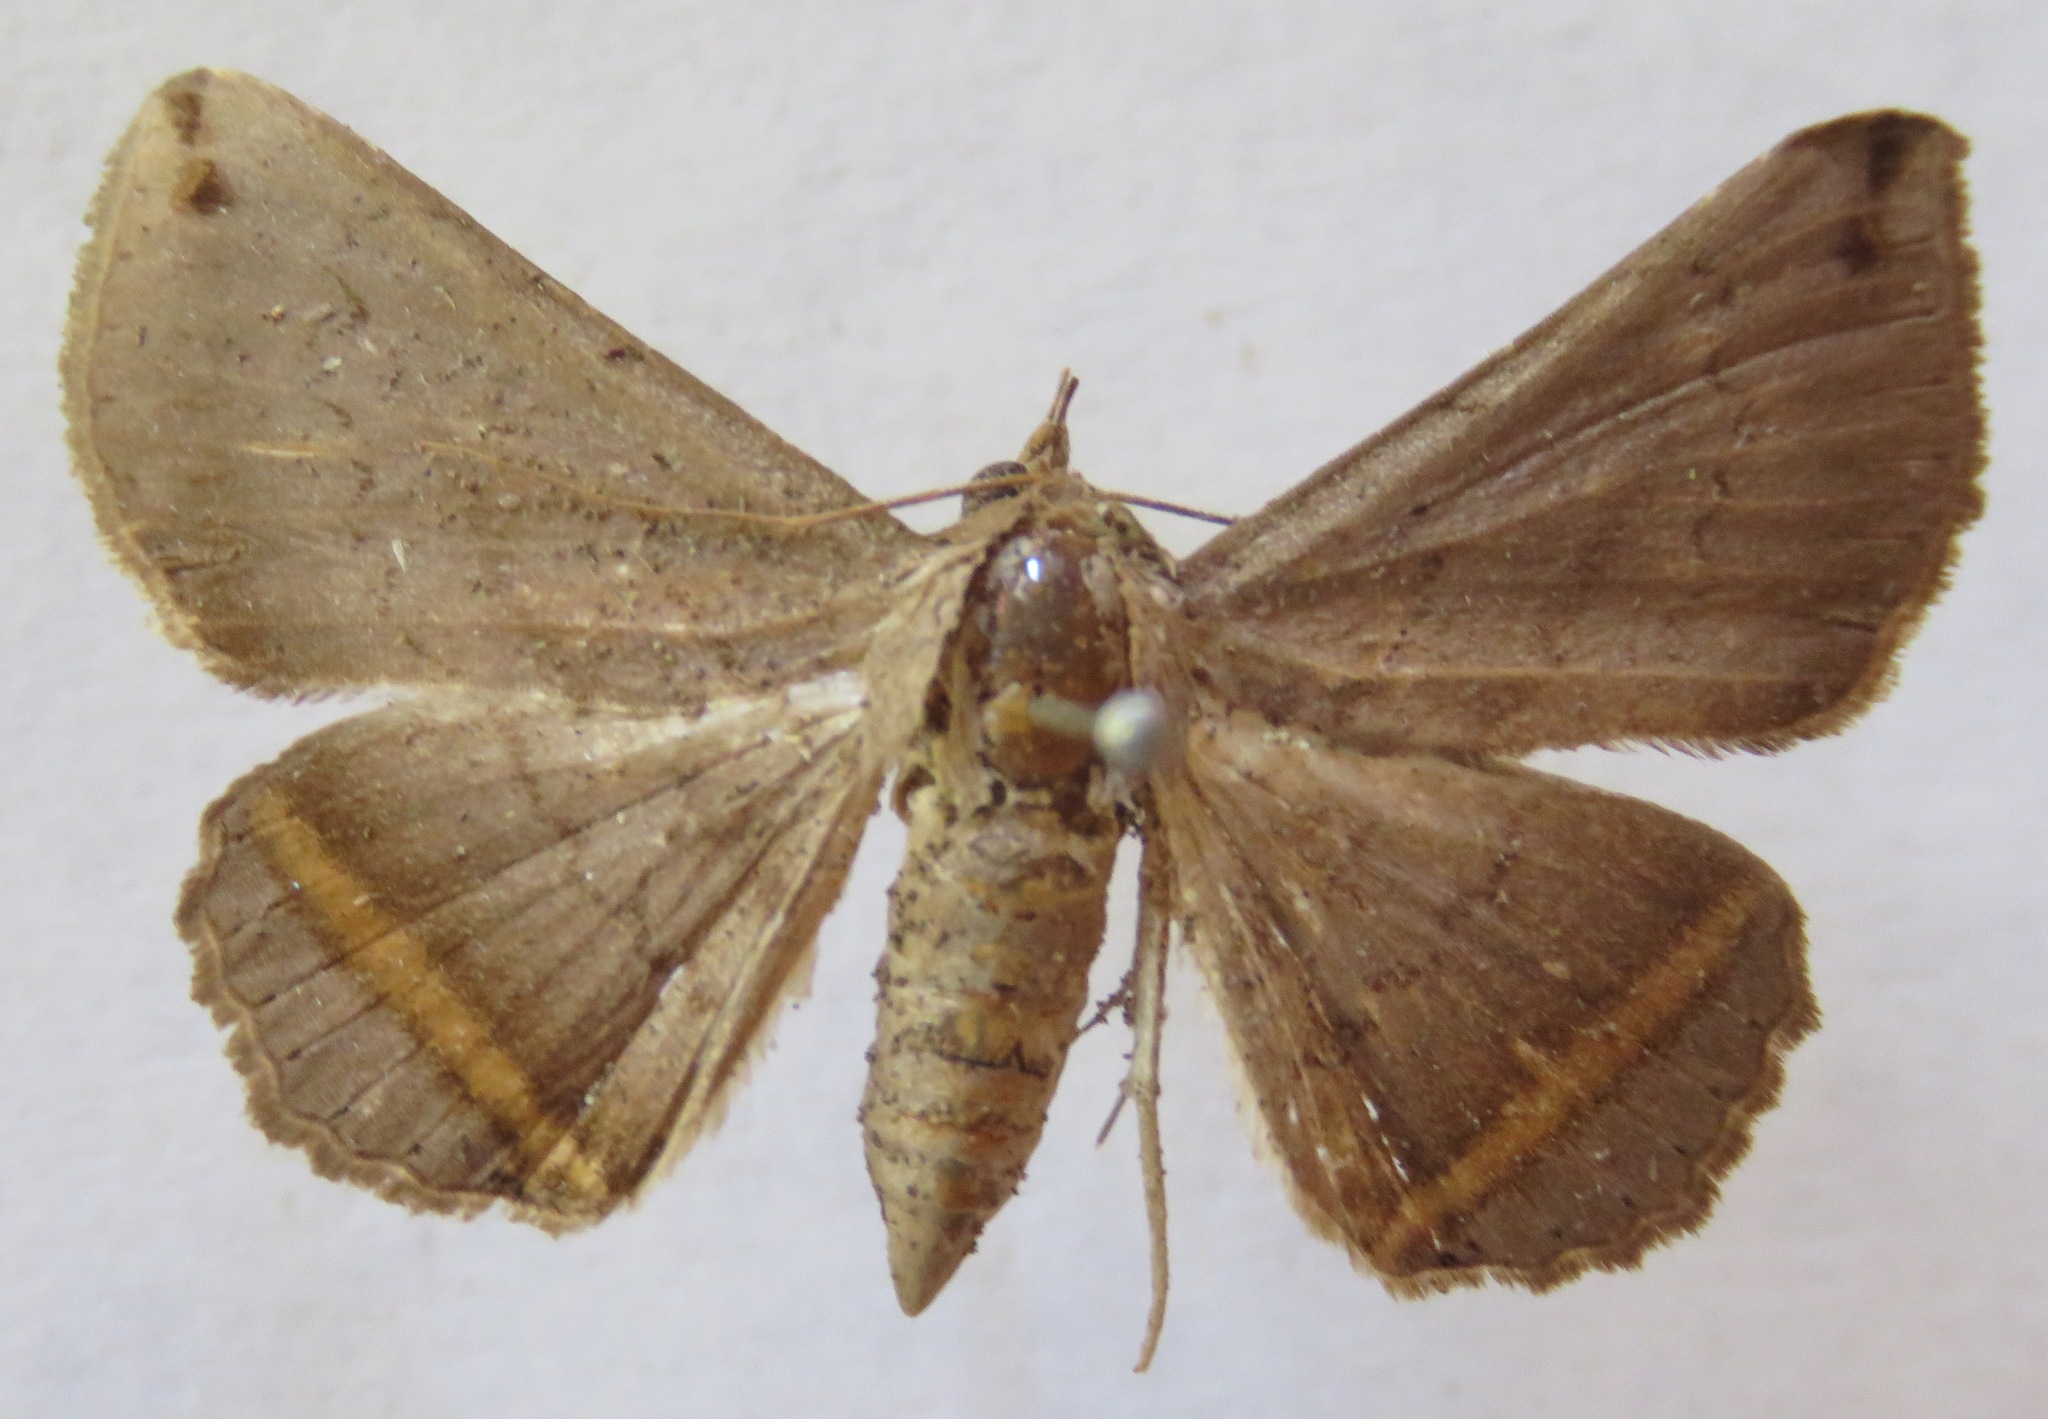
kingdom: Animalia
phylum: Arthropoda
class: Insecta
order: Lepidoptera
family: Erebidae
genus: Lesmone
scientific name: Lesmone formularis
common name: Lesmone moth
